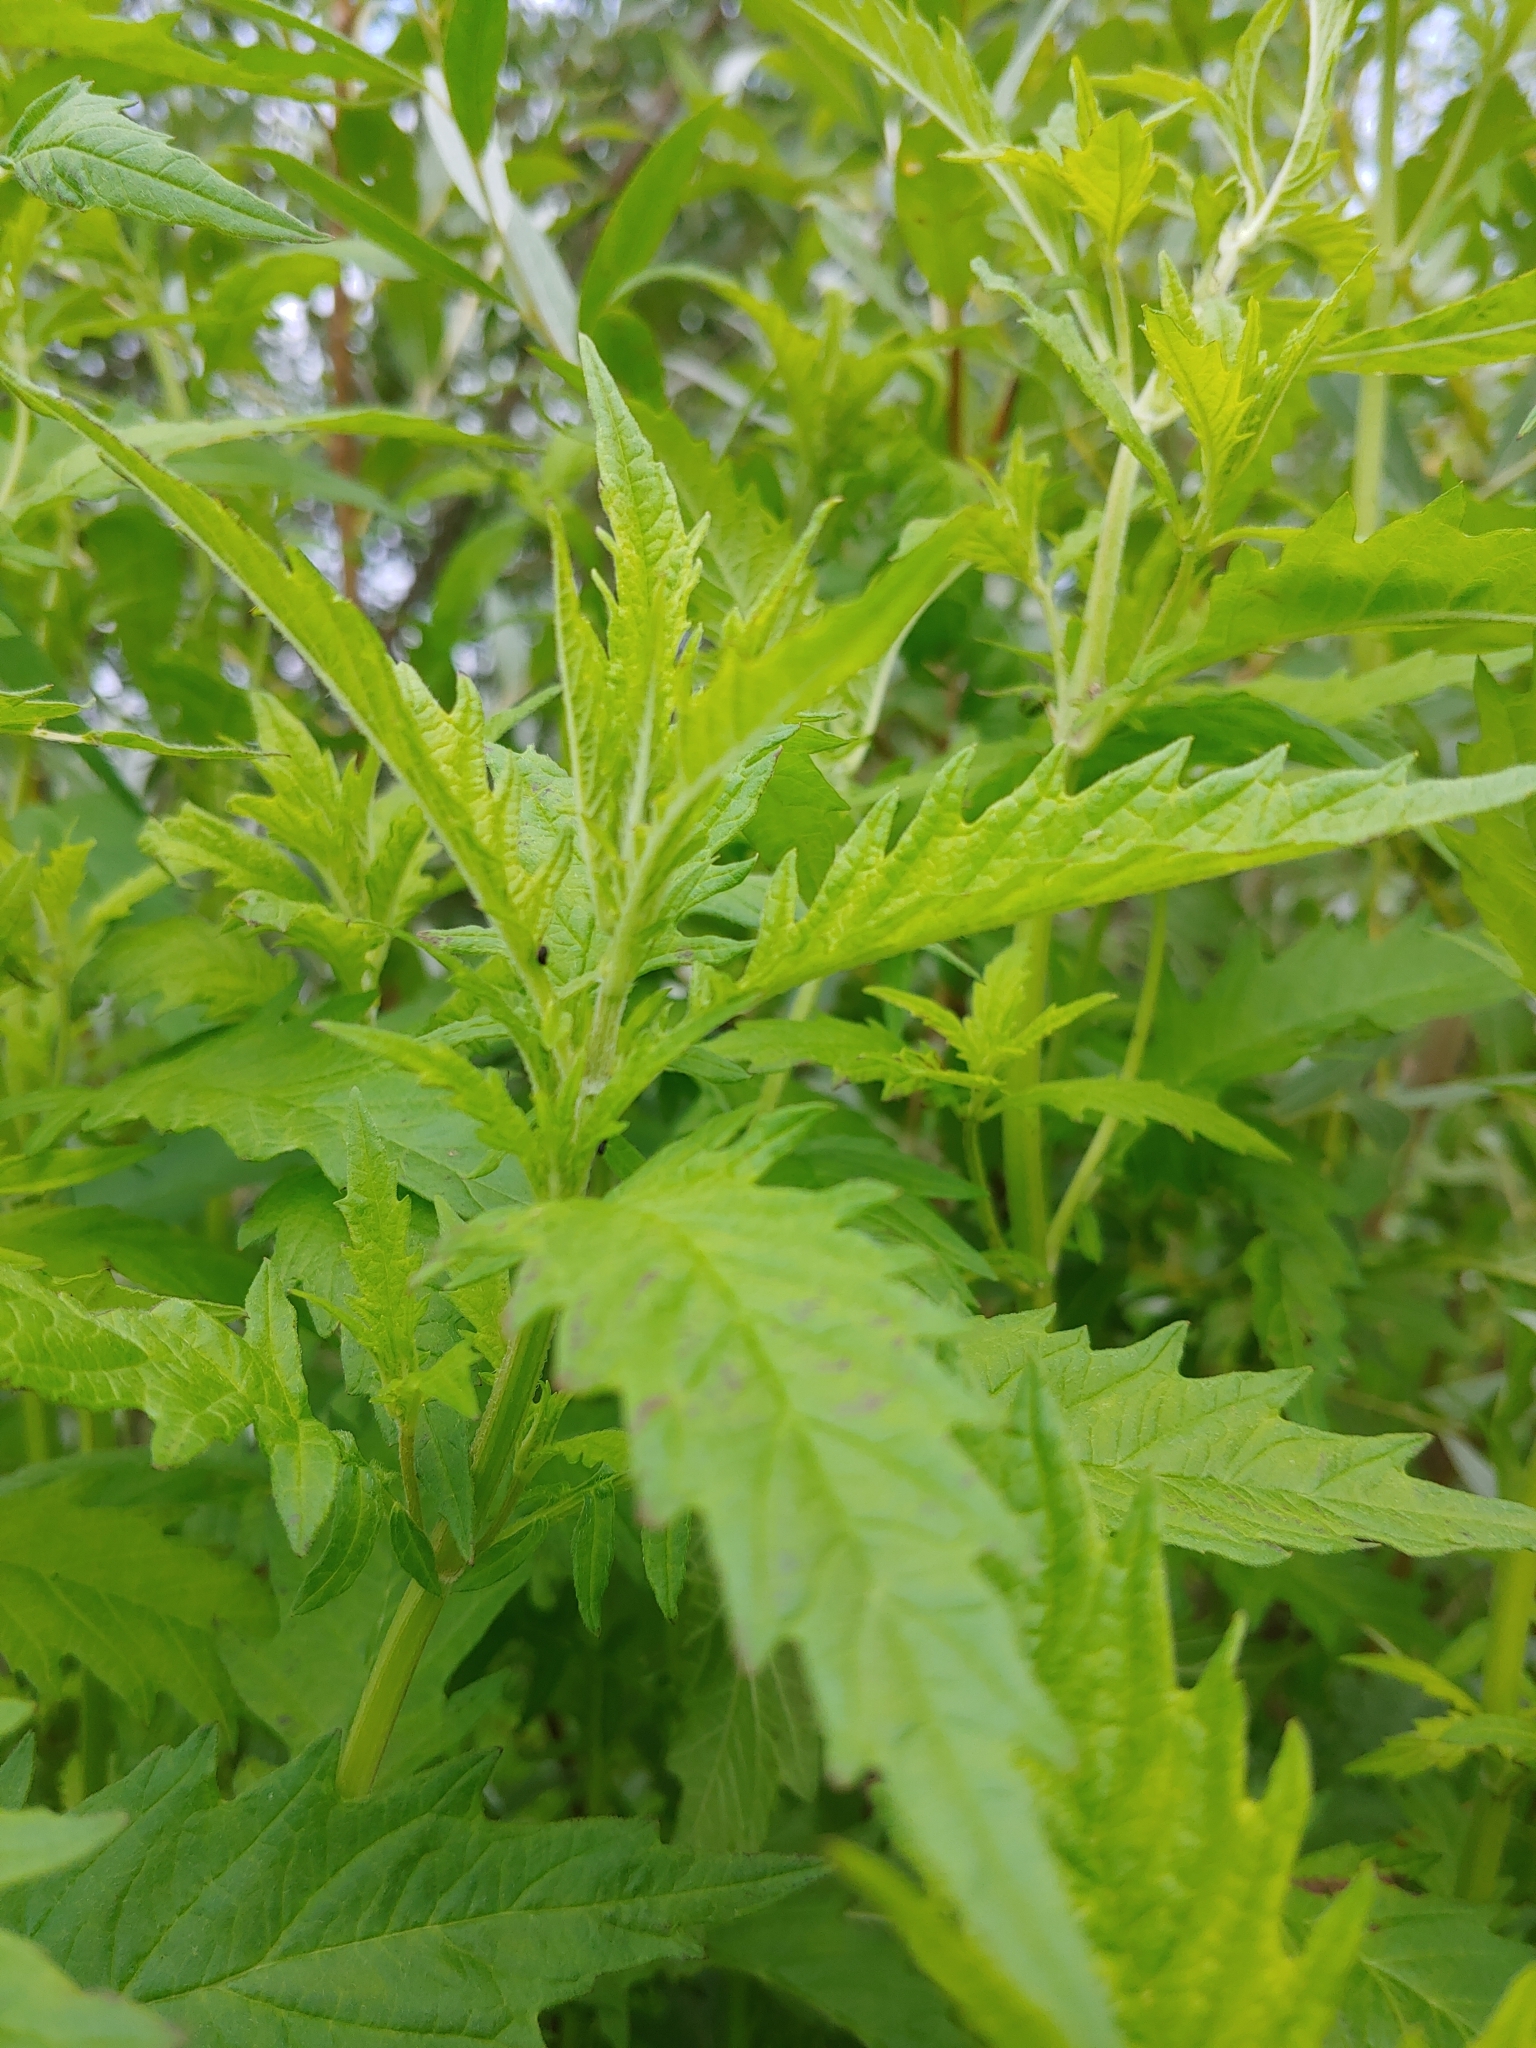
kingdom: Plantae
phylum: Tracheophyta
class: Magnoliopsida
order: Lamiales
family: Lamiaceae
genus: Lycopus
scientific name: Lycopus exaltatus
